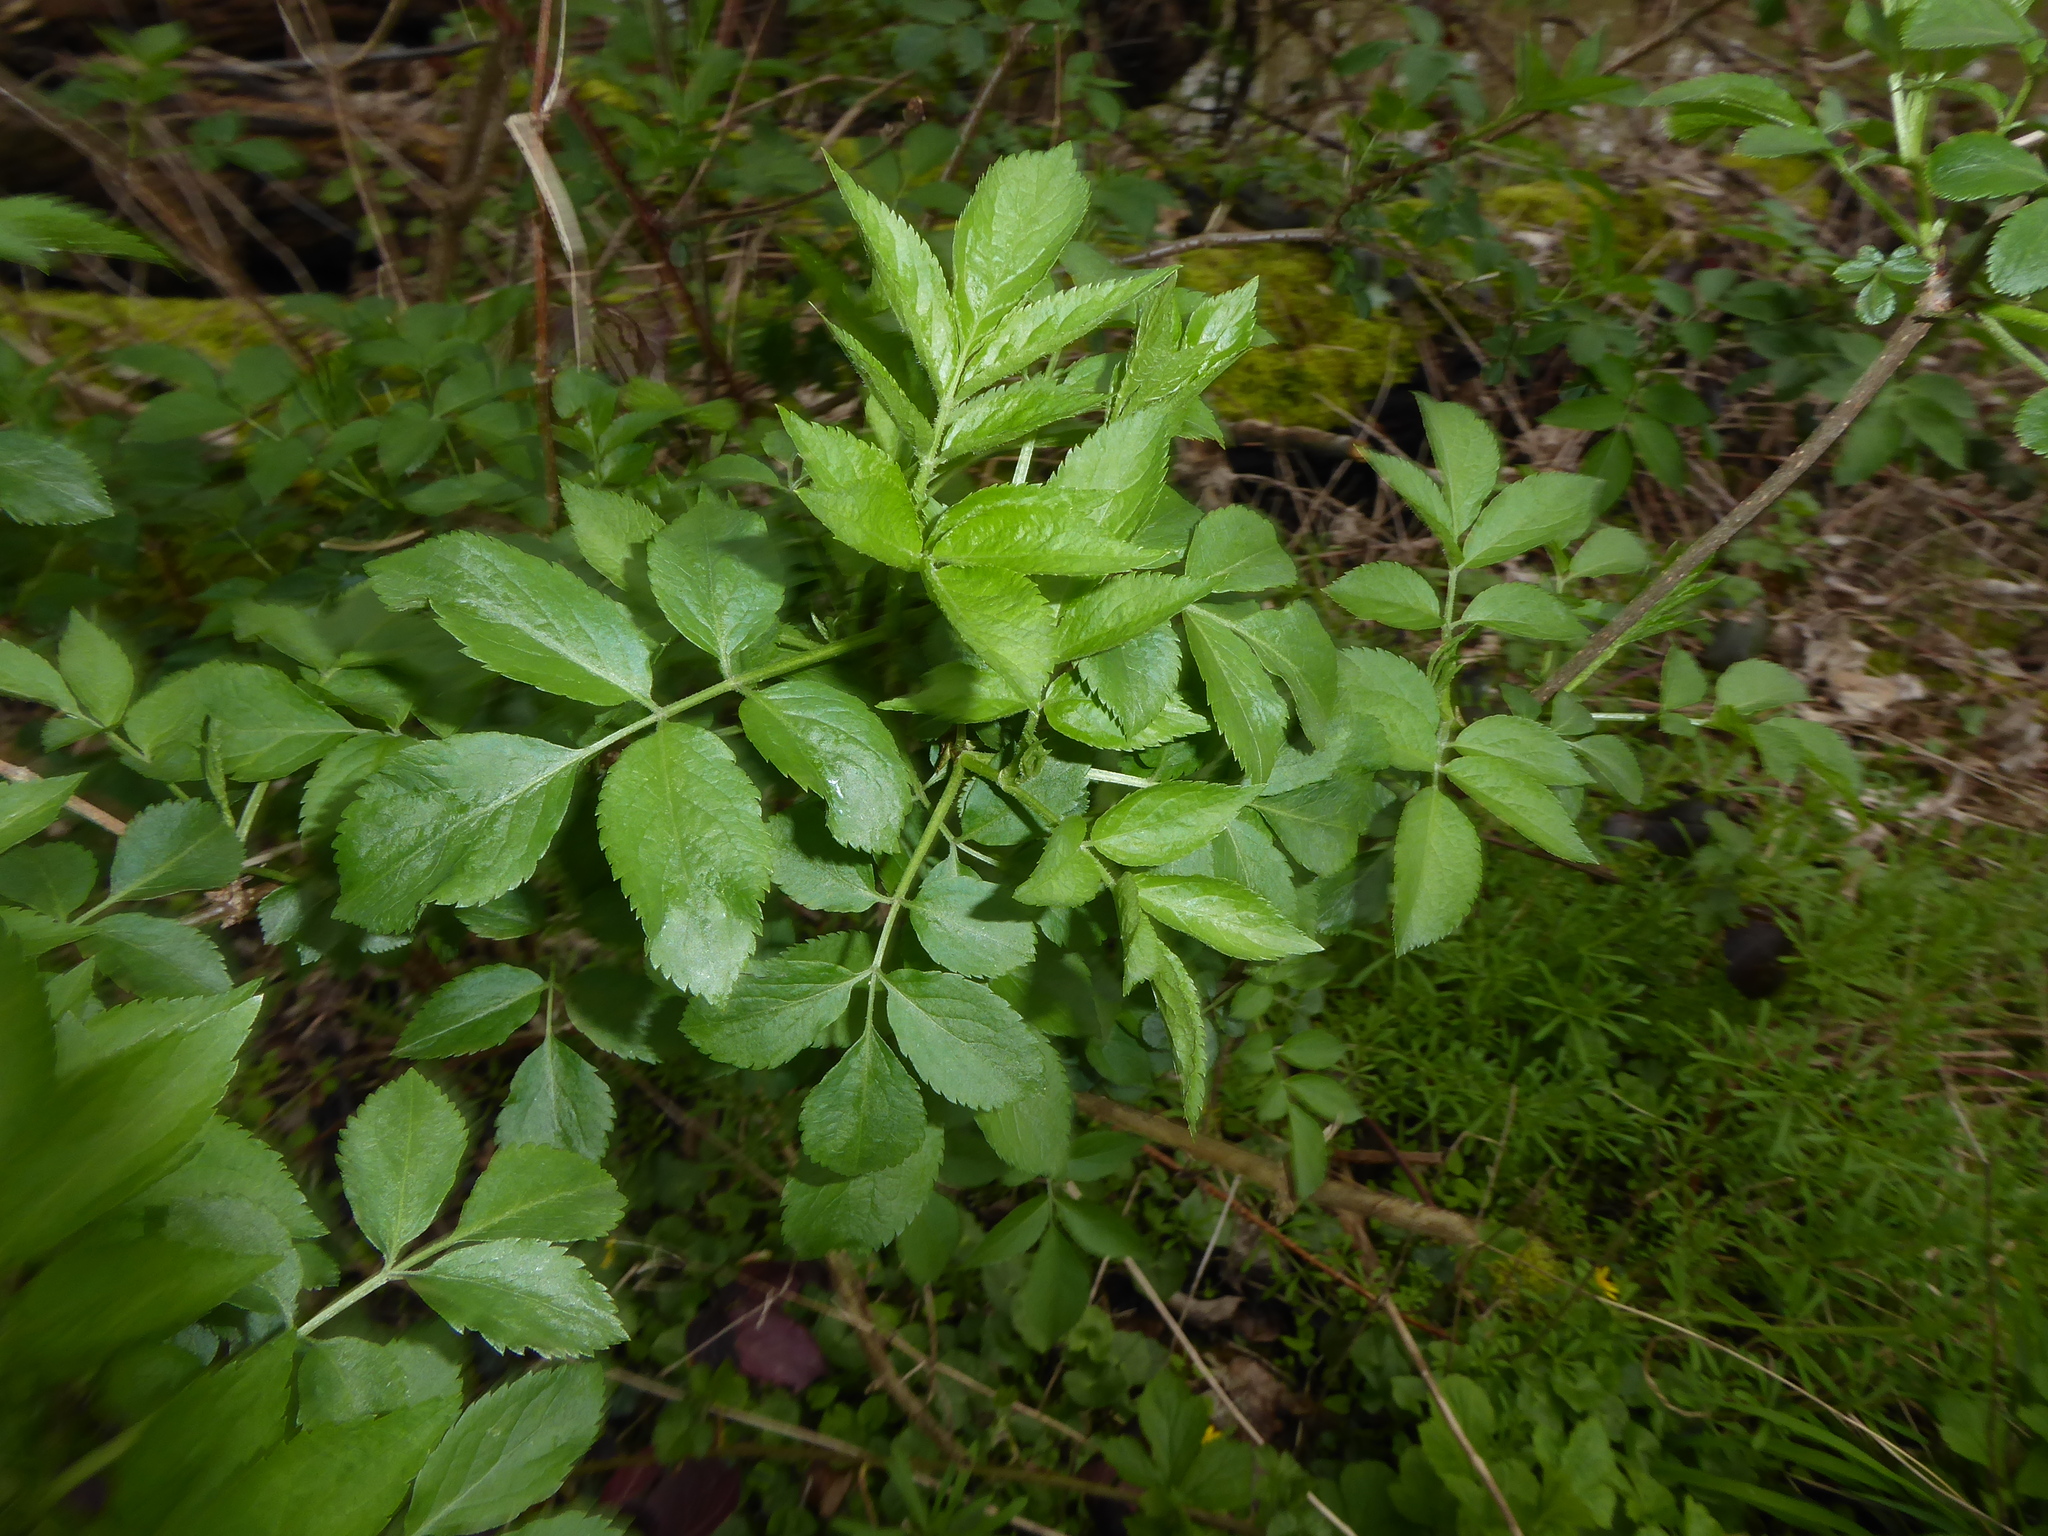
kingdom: Plantae
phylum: Tracheophyta
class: Magnoliopsida
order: Dipsacales
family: Viburnaceae
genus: Sambucus
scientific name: Sambucus nigra
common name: Elder
